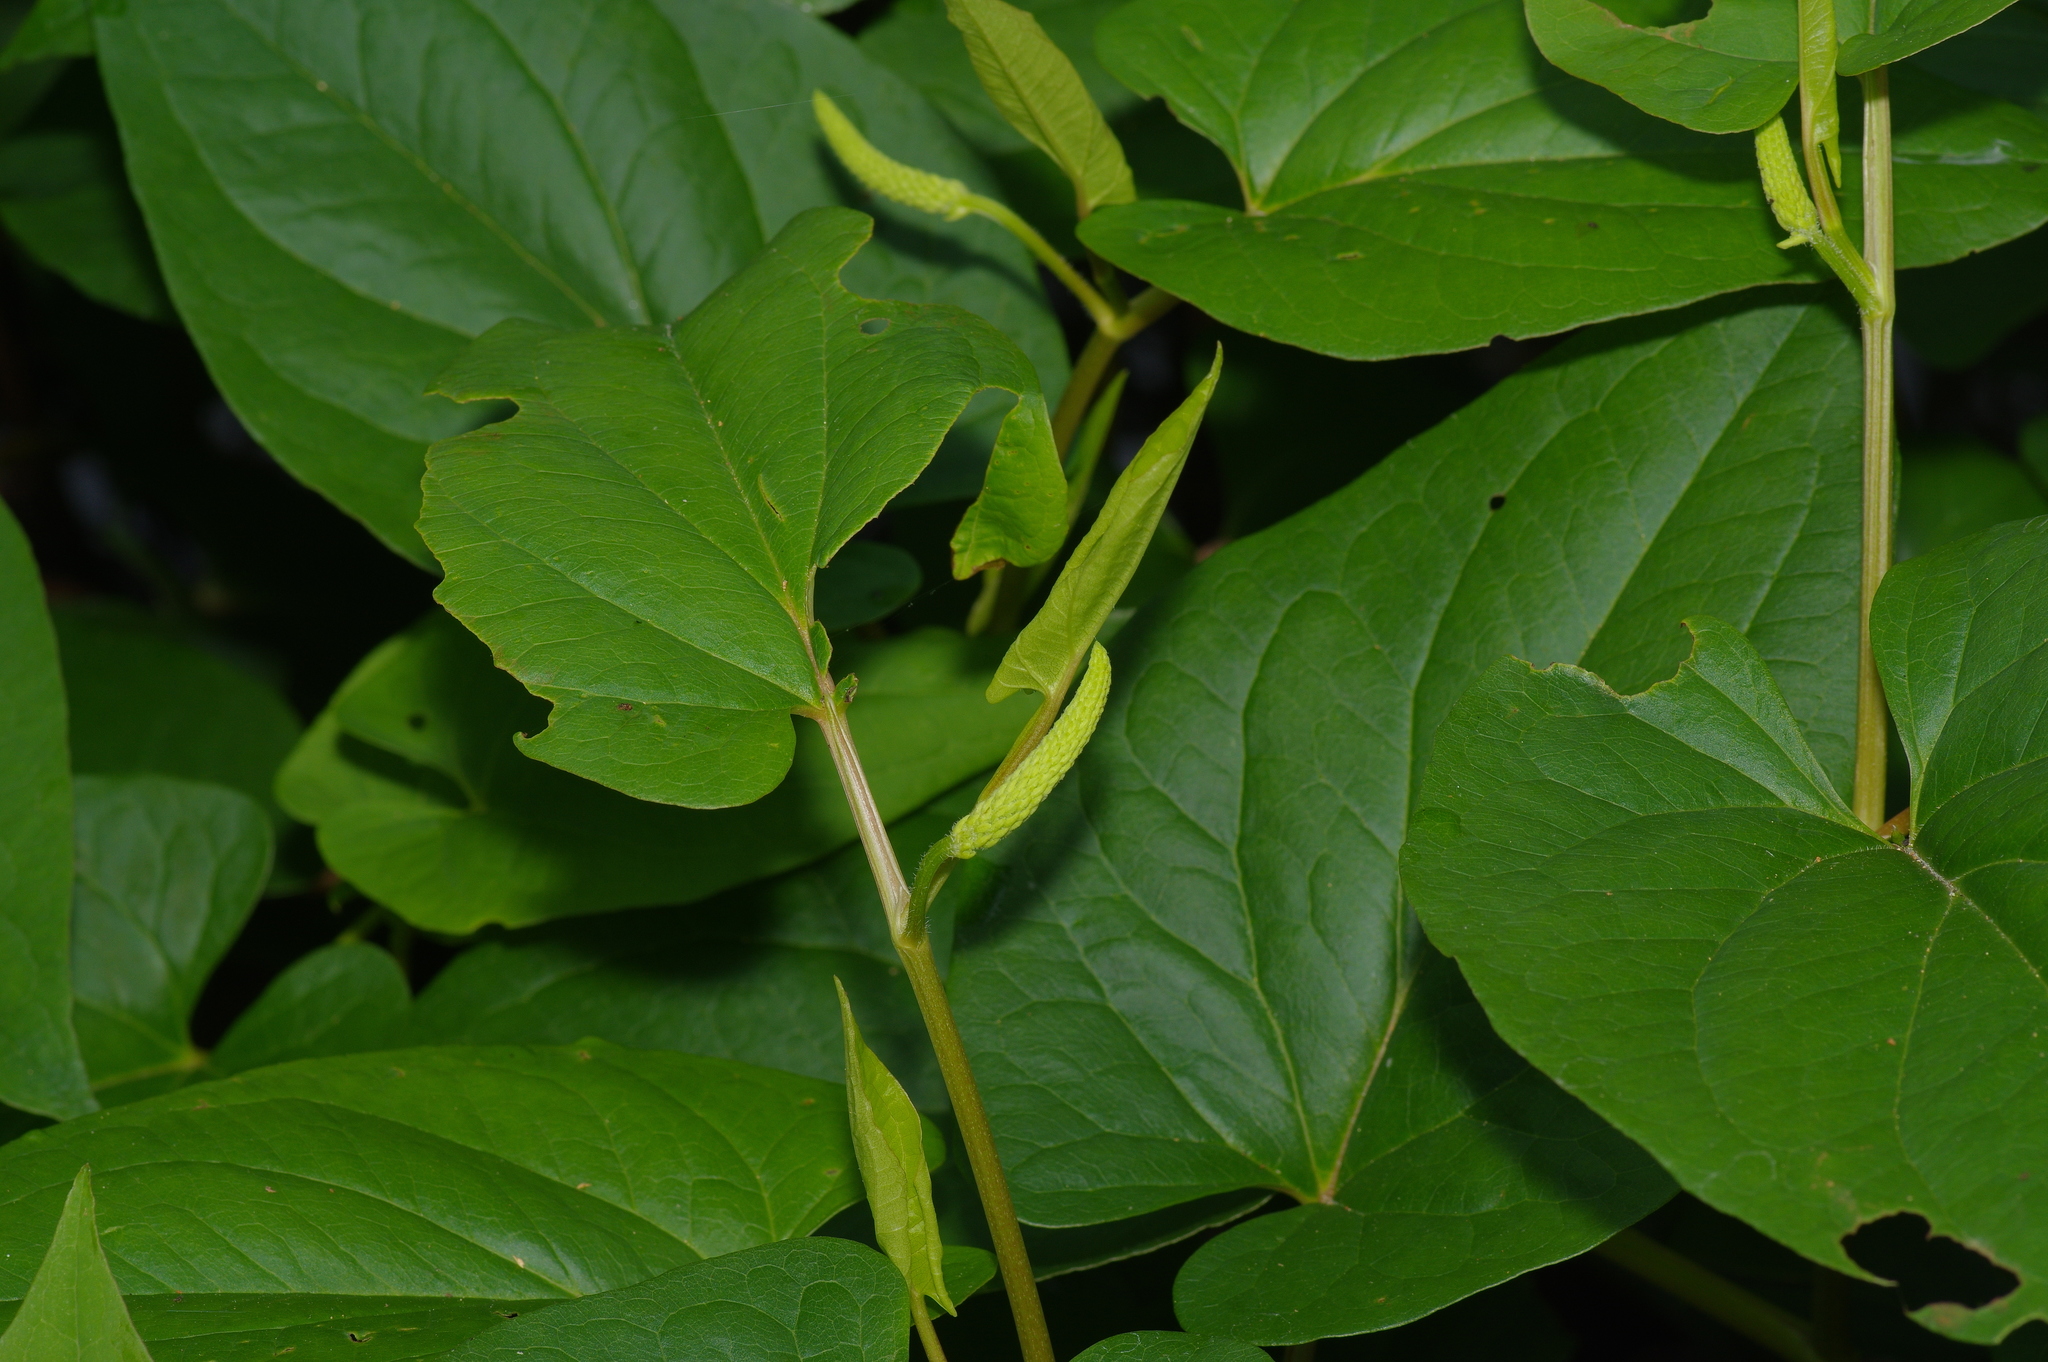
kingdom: Plantae
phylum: Tracheophyta
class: Magnoliopsida
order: Piperales
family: Saururaceae
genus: Saururus
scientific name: Saururus cernuus
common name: Lizard's-tail
